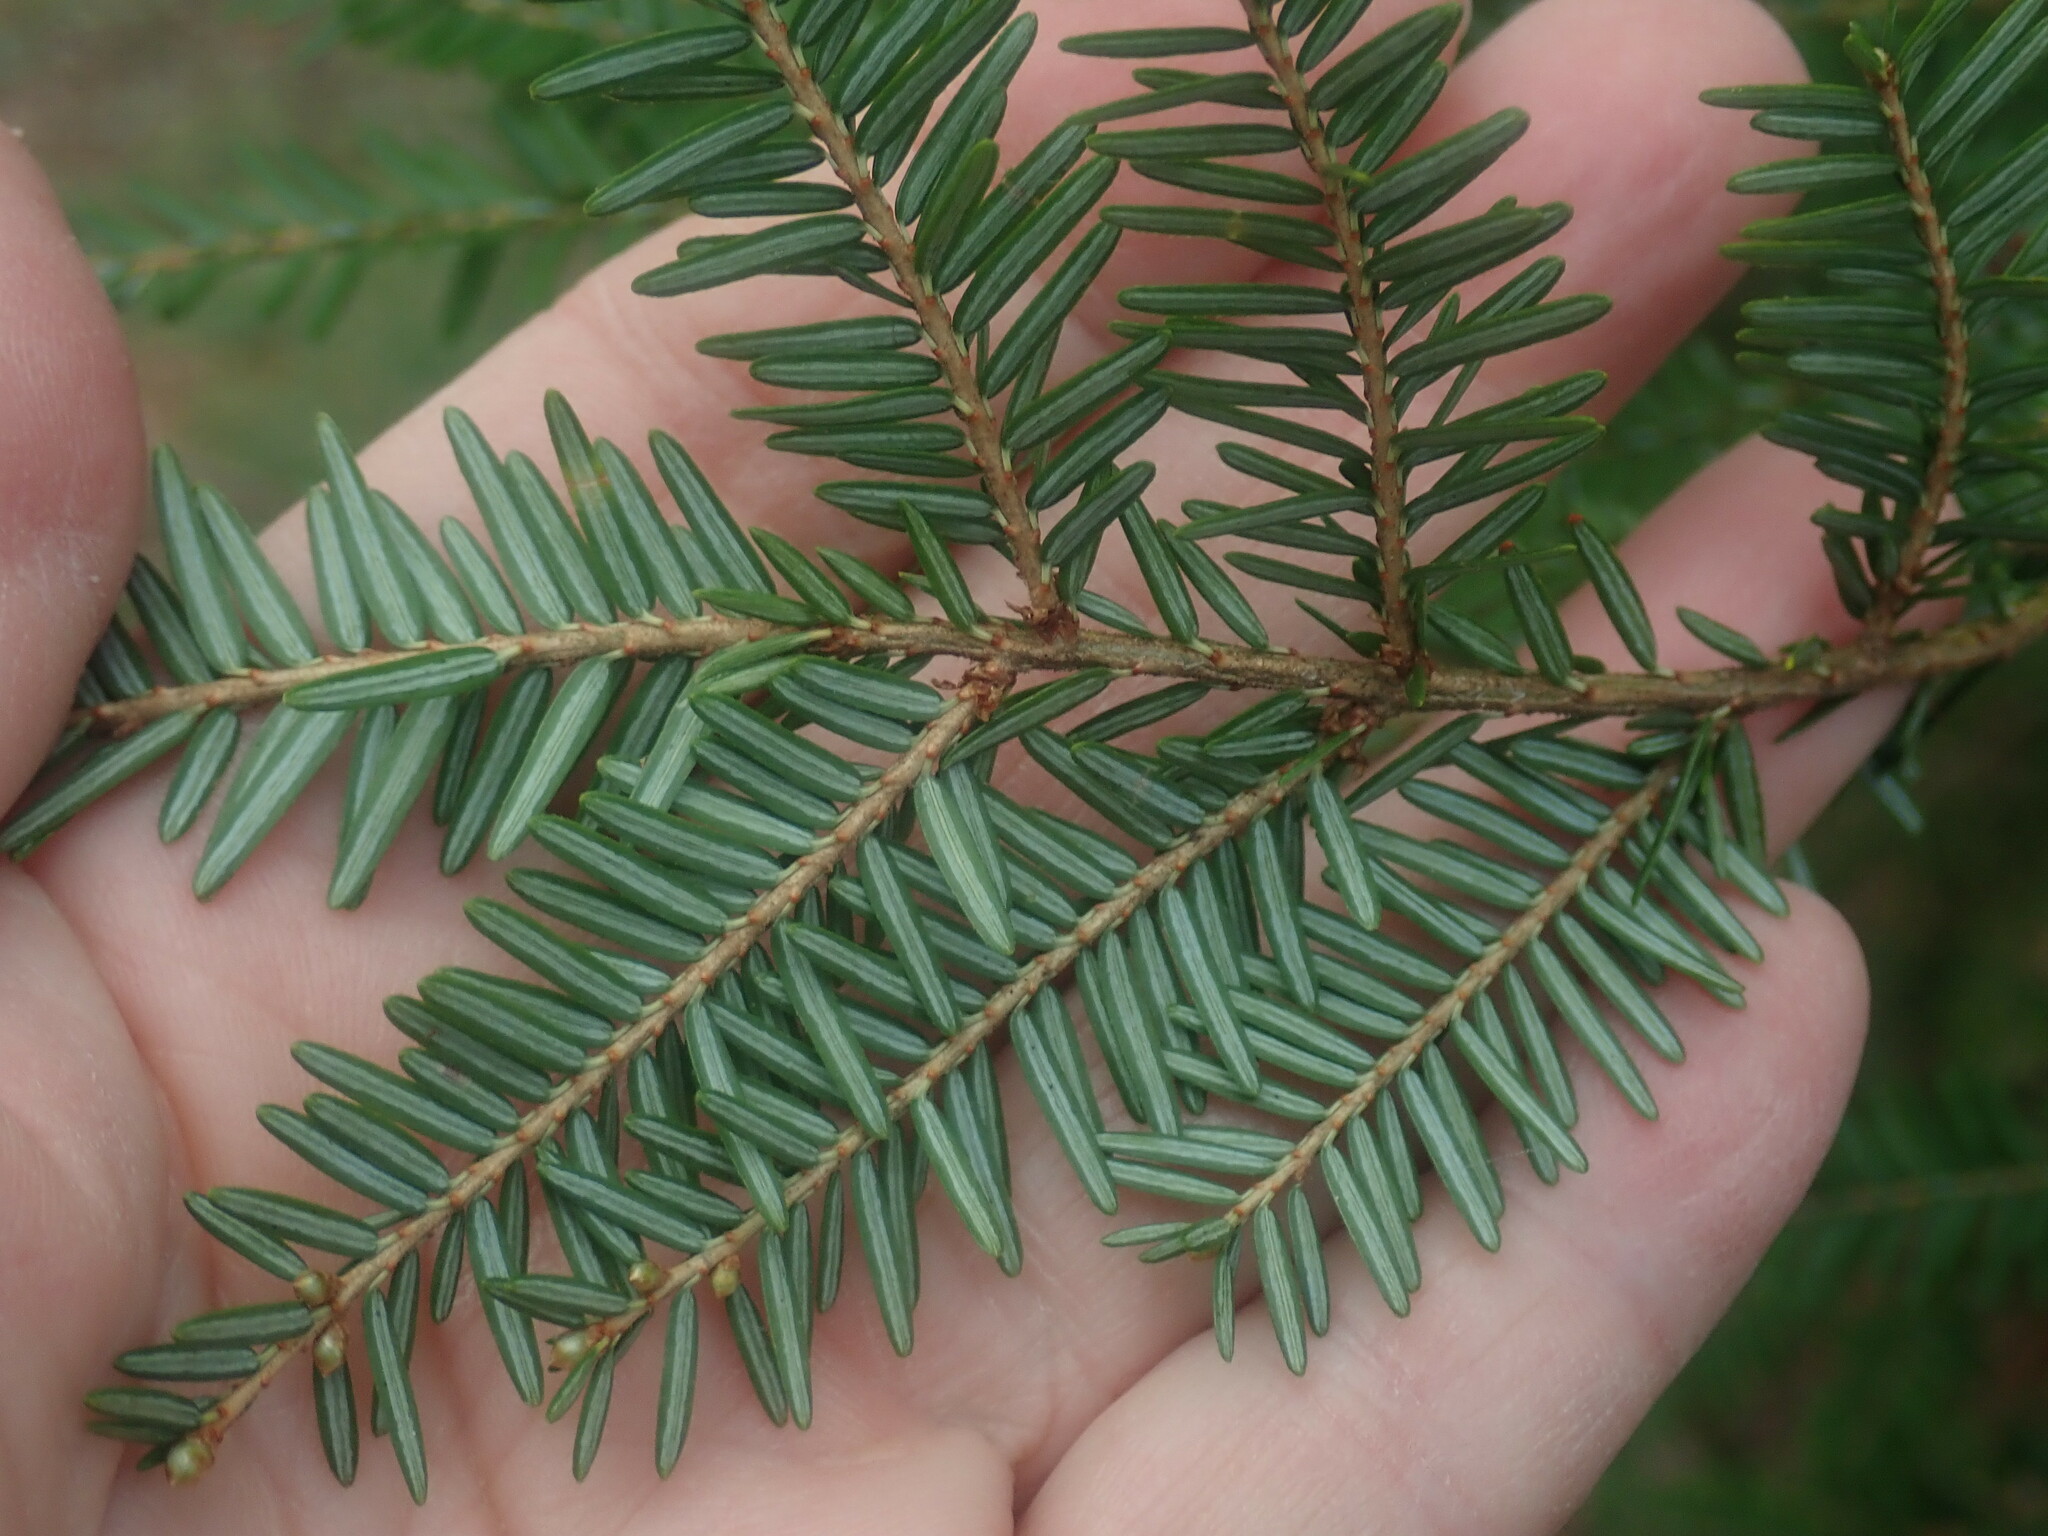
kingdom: Plantae
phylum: Tracheophyta
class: Pinopsida
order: Pinales
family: Pinaceae
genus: Tsuga
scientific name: Tsuga canadensis
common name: Eastern hemlock
